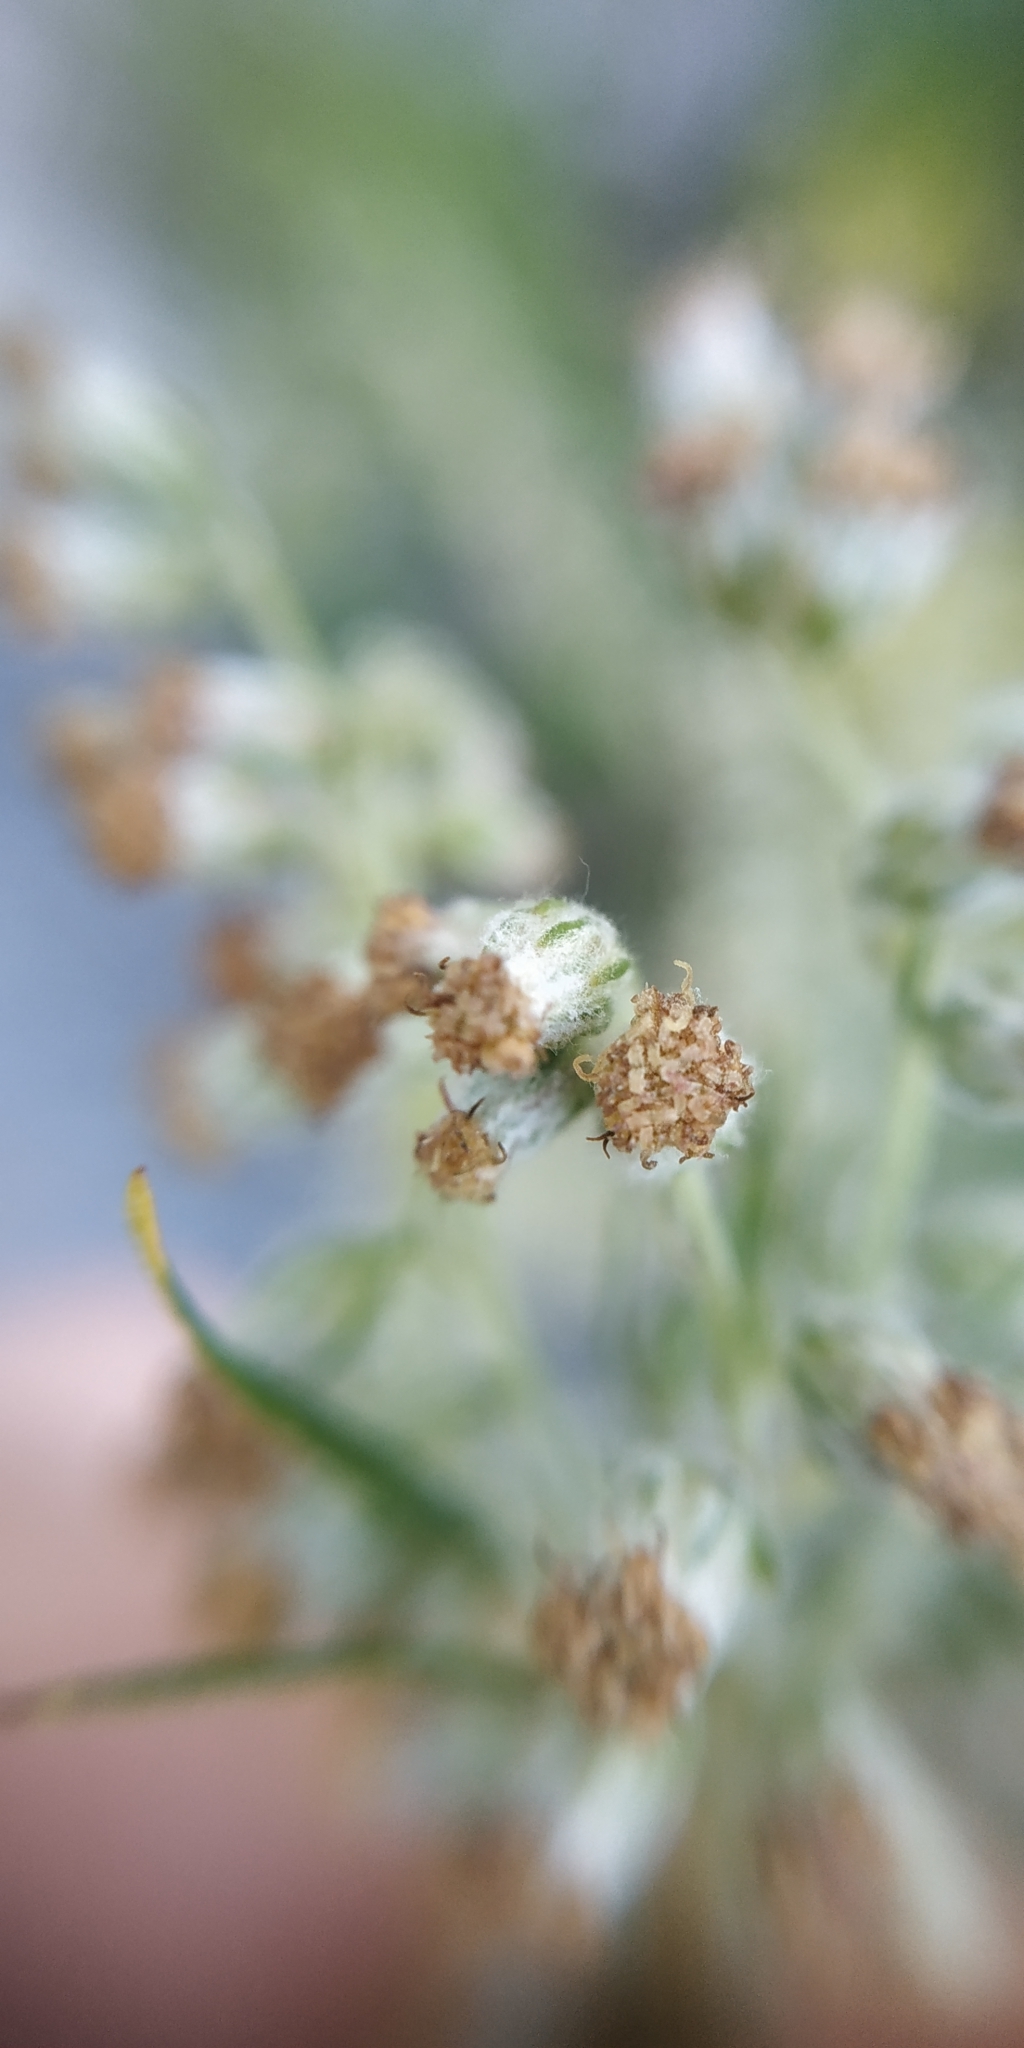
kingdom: Plantae
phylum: Tracheophyta
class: Magnoliopsida
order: Asterales
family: Asteraceae
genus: Artemisia
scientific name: Artemisia vulgaris
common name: Mugwort
